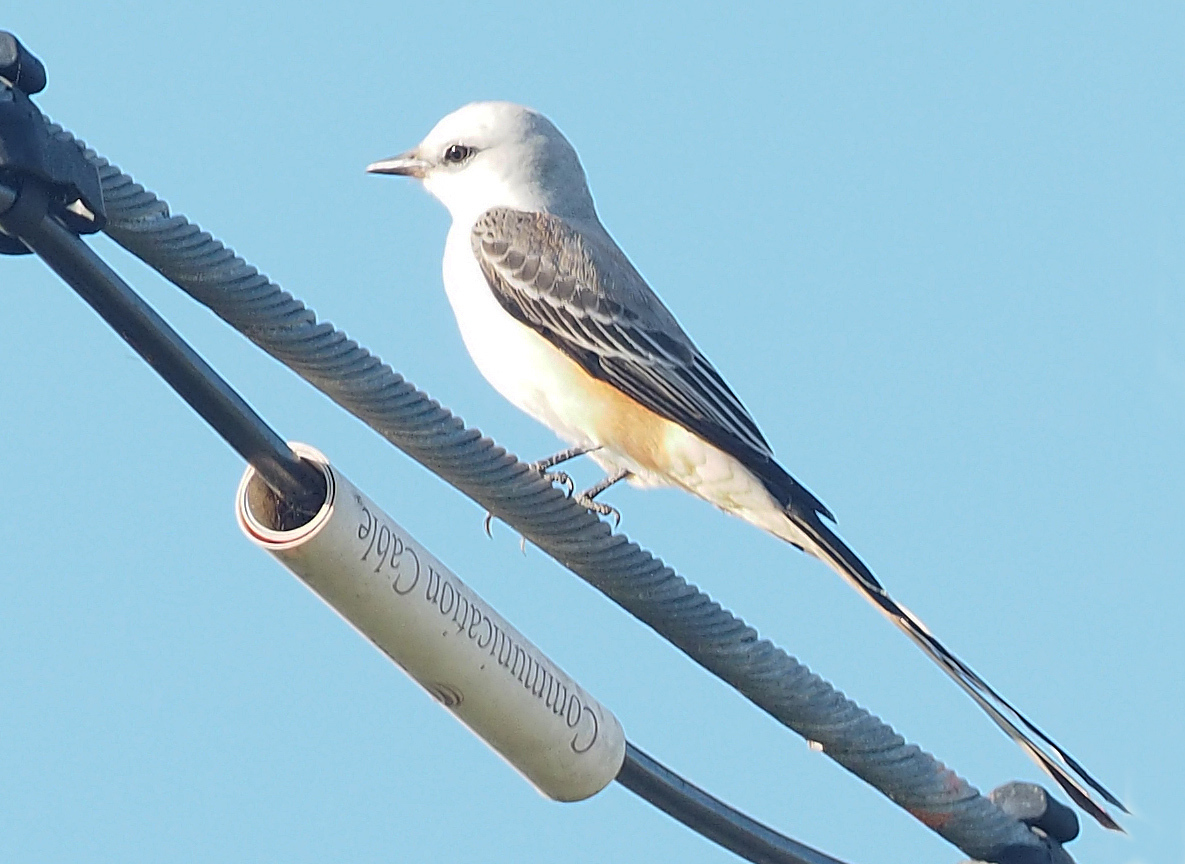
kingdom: Animalia
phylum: Chordata
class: Aves
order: Passeriformes
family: Tyrannidae
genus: Tyrannus
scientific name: Tyrannus forficatus
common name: Scissor-tailed flycatcher
